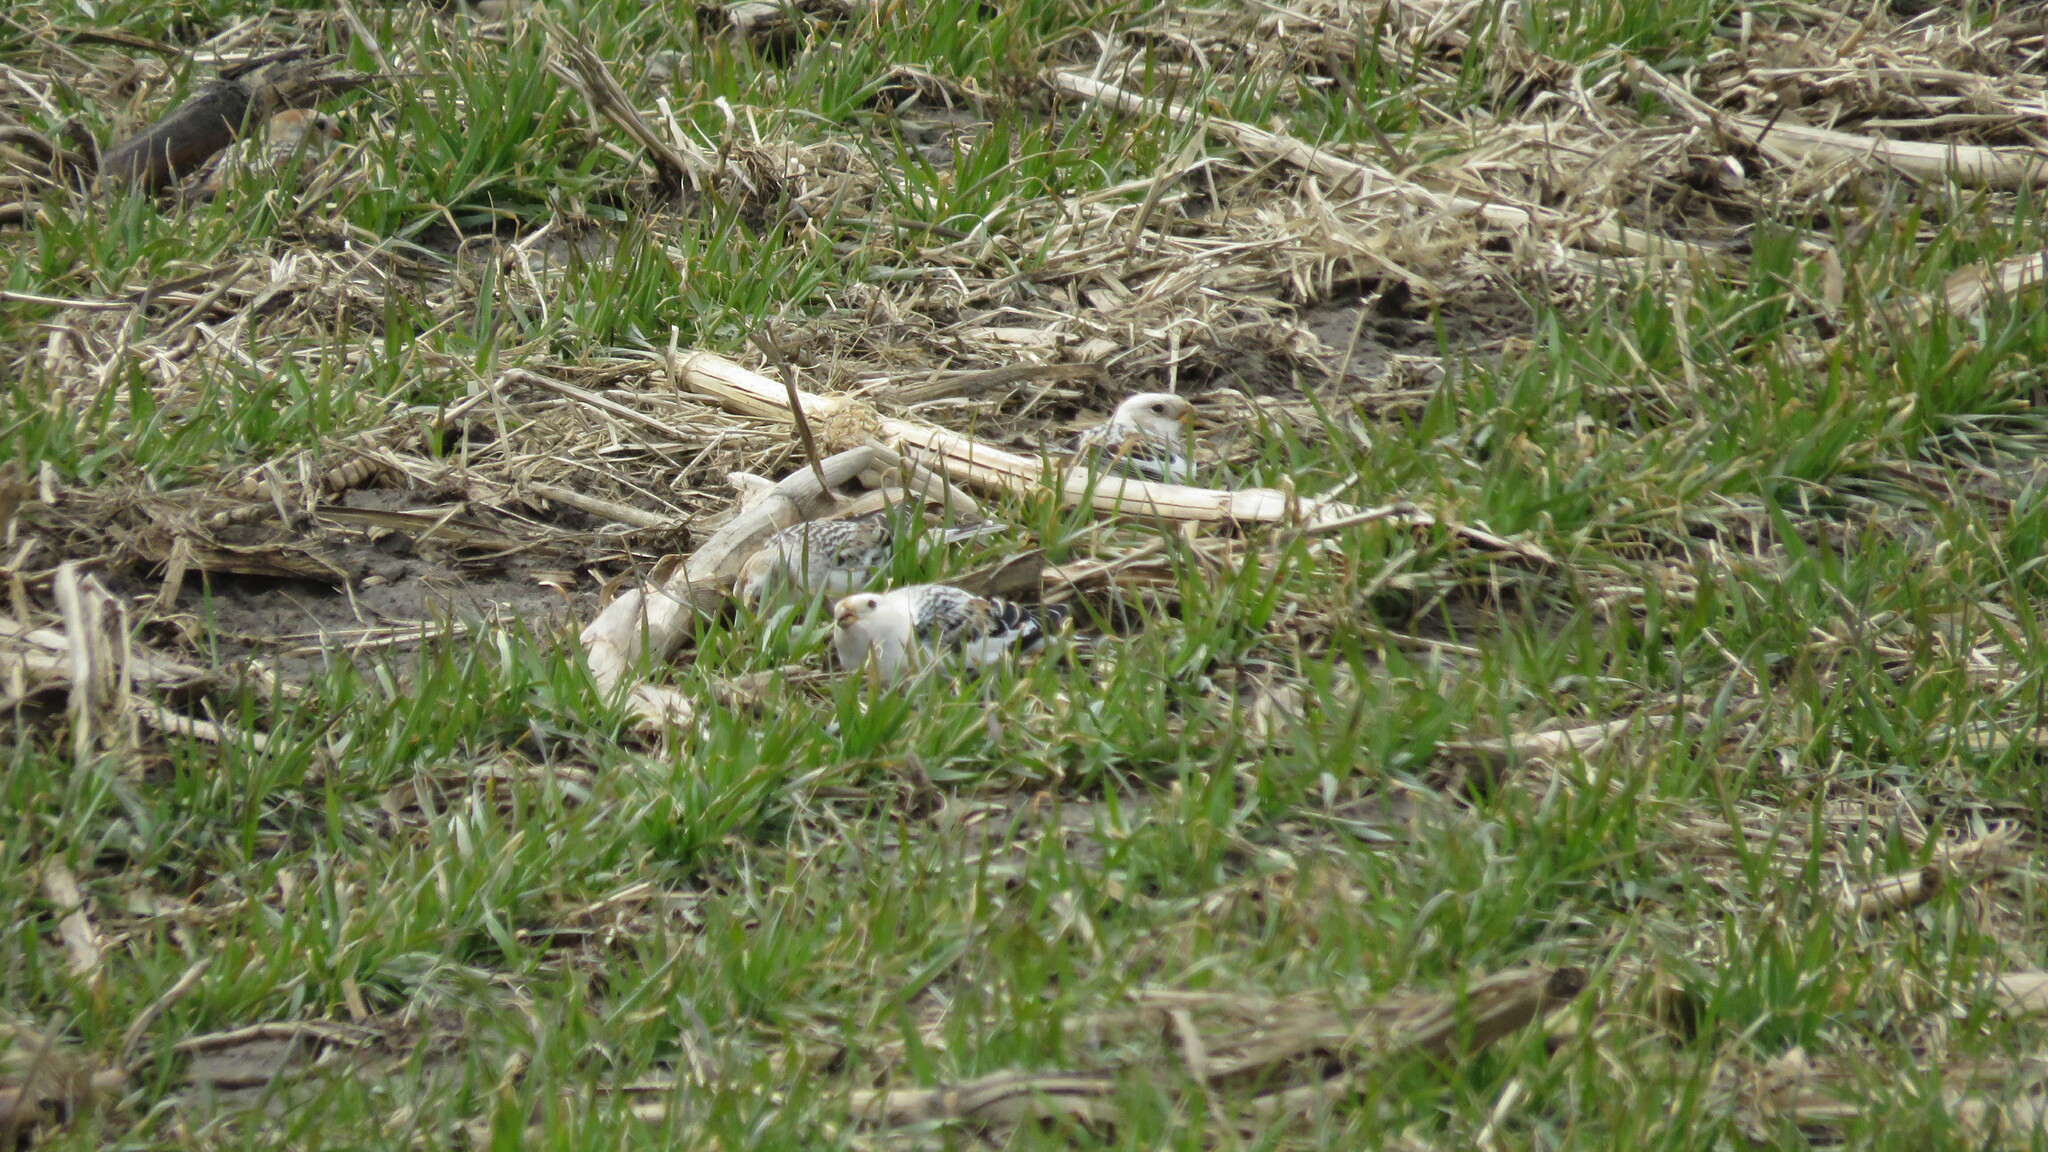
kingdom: Animalia
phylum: Chordata
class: Aves
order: Passeriformes
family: Calcariidae
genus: Plectrophenax
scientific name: Plectrophenax nivalis
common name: Snow bunting
